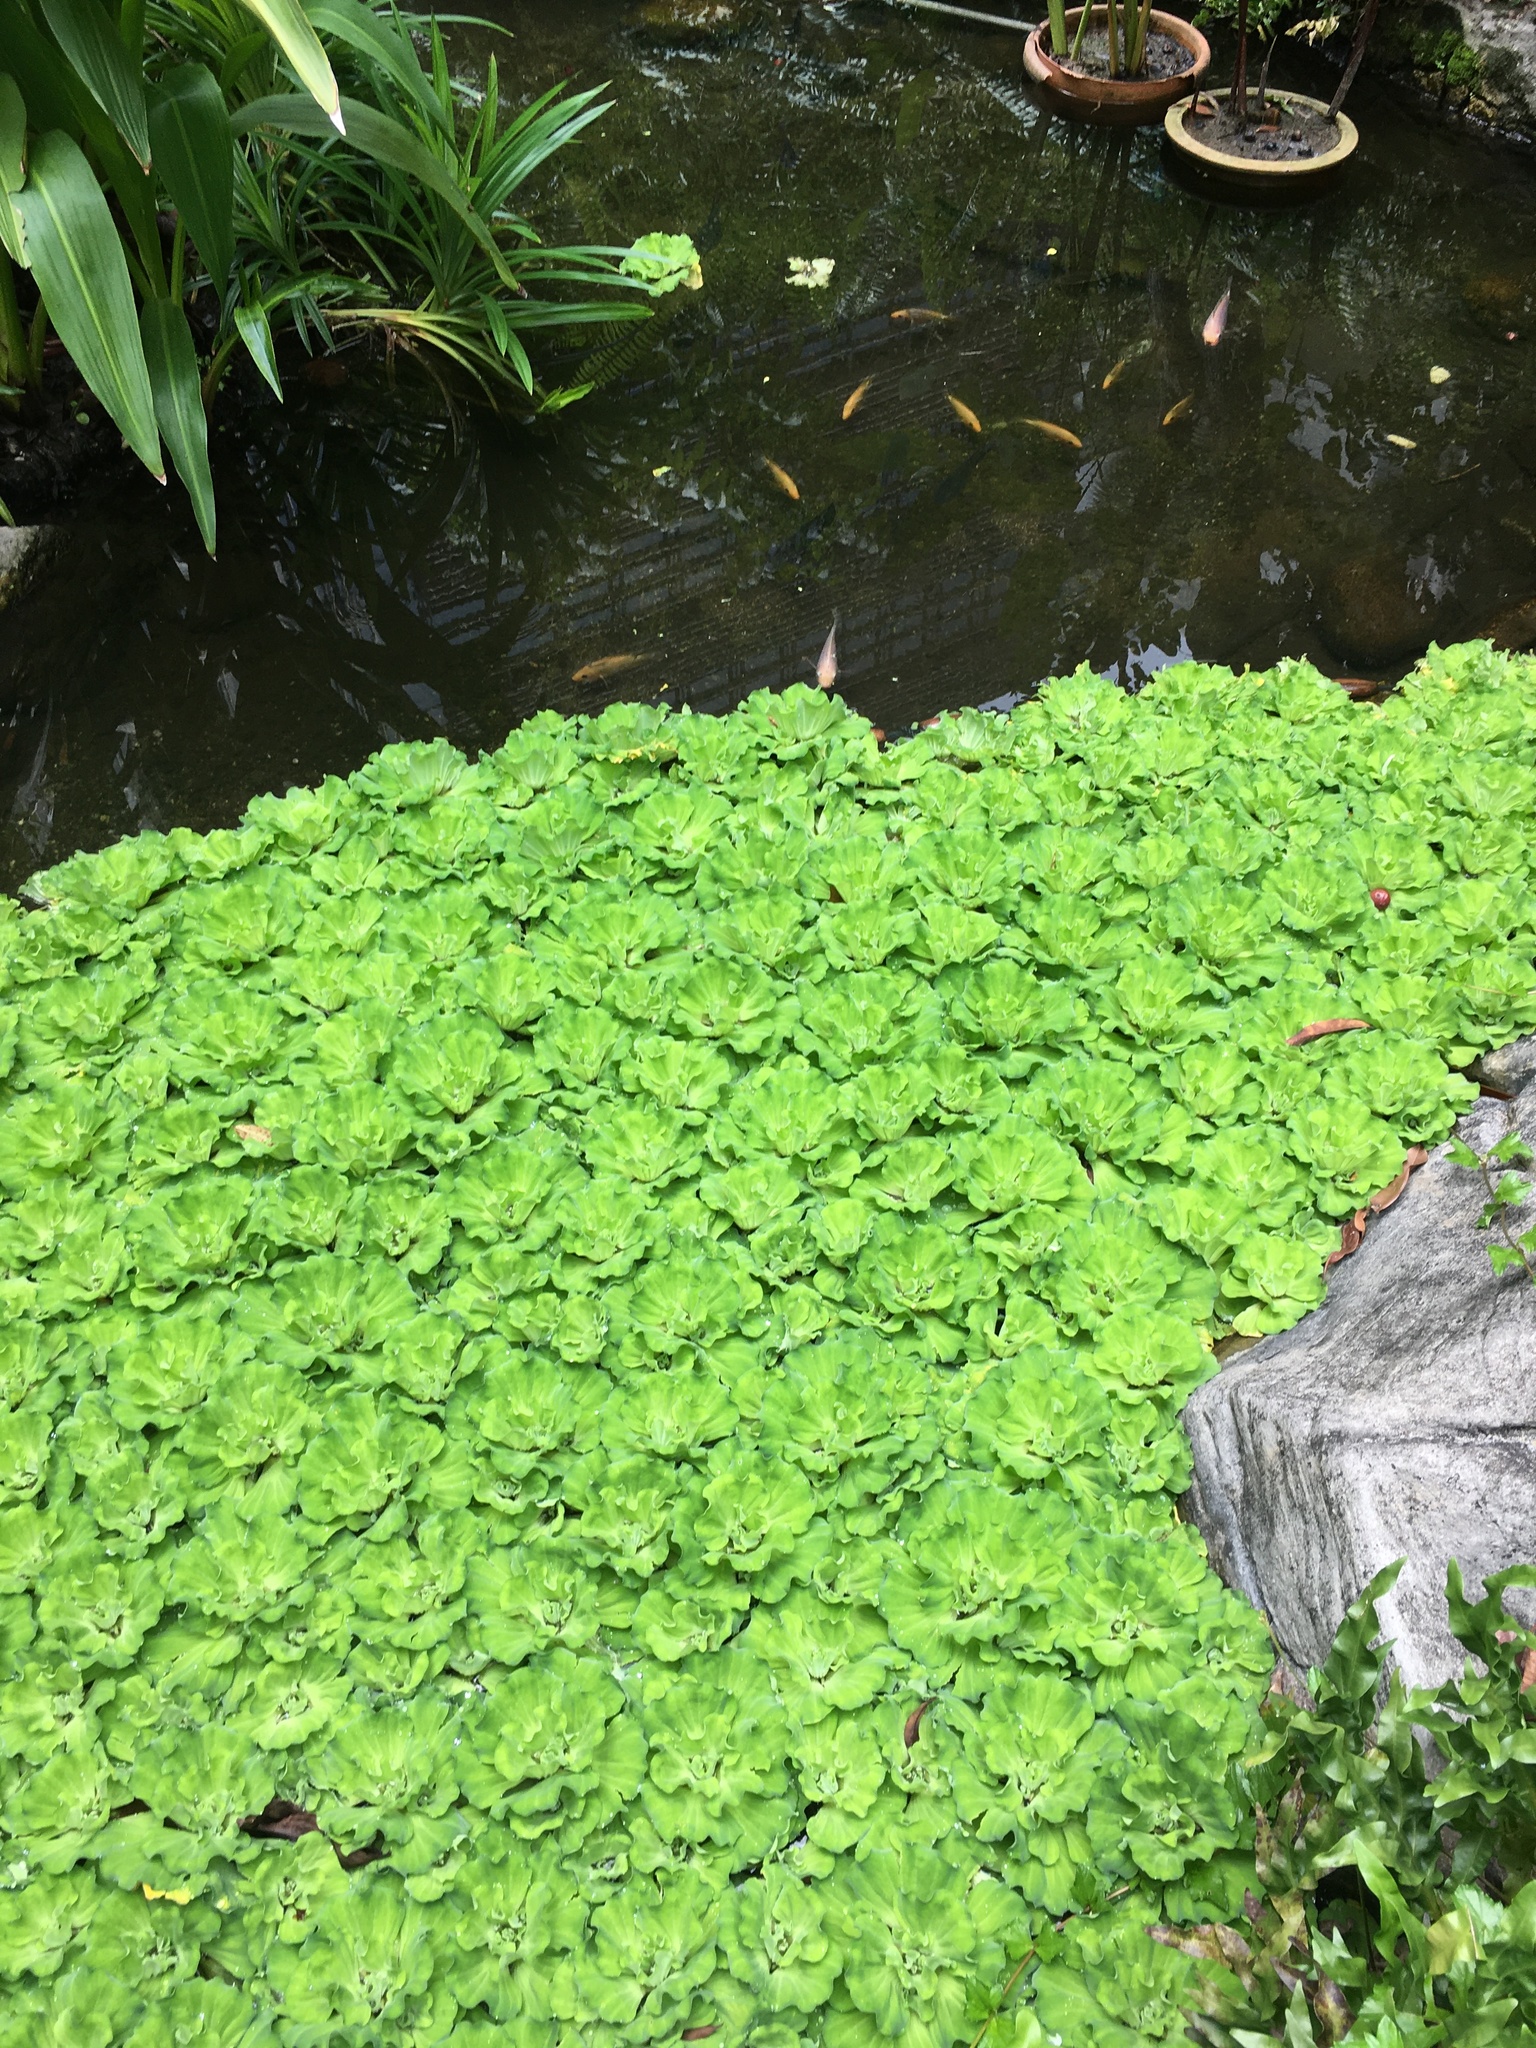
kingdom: Plantae
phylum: Tracheophyta
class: Liliopsida
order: Alismatales
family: Araceae
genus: Pistia
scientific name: Pistia stratiotes
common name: Water lettuce
